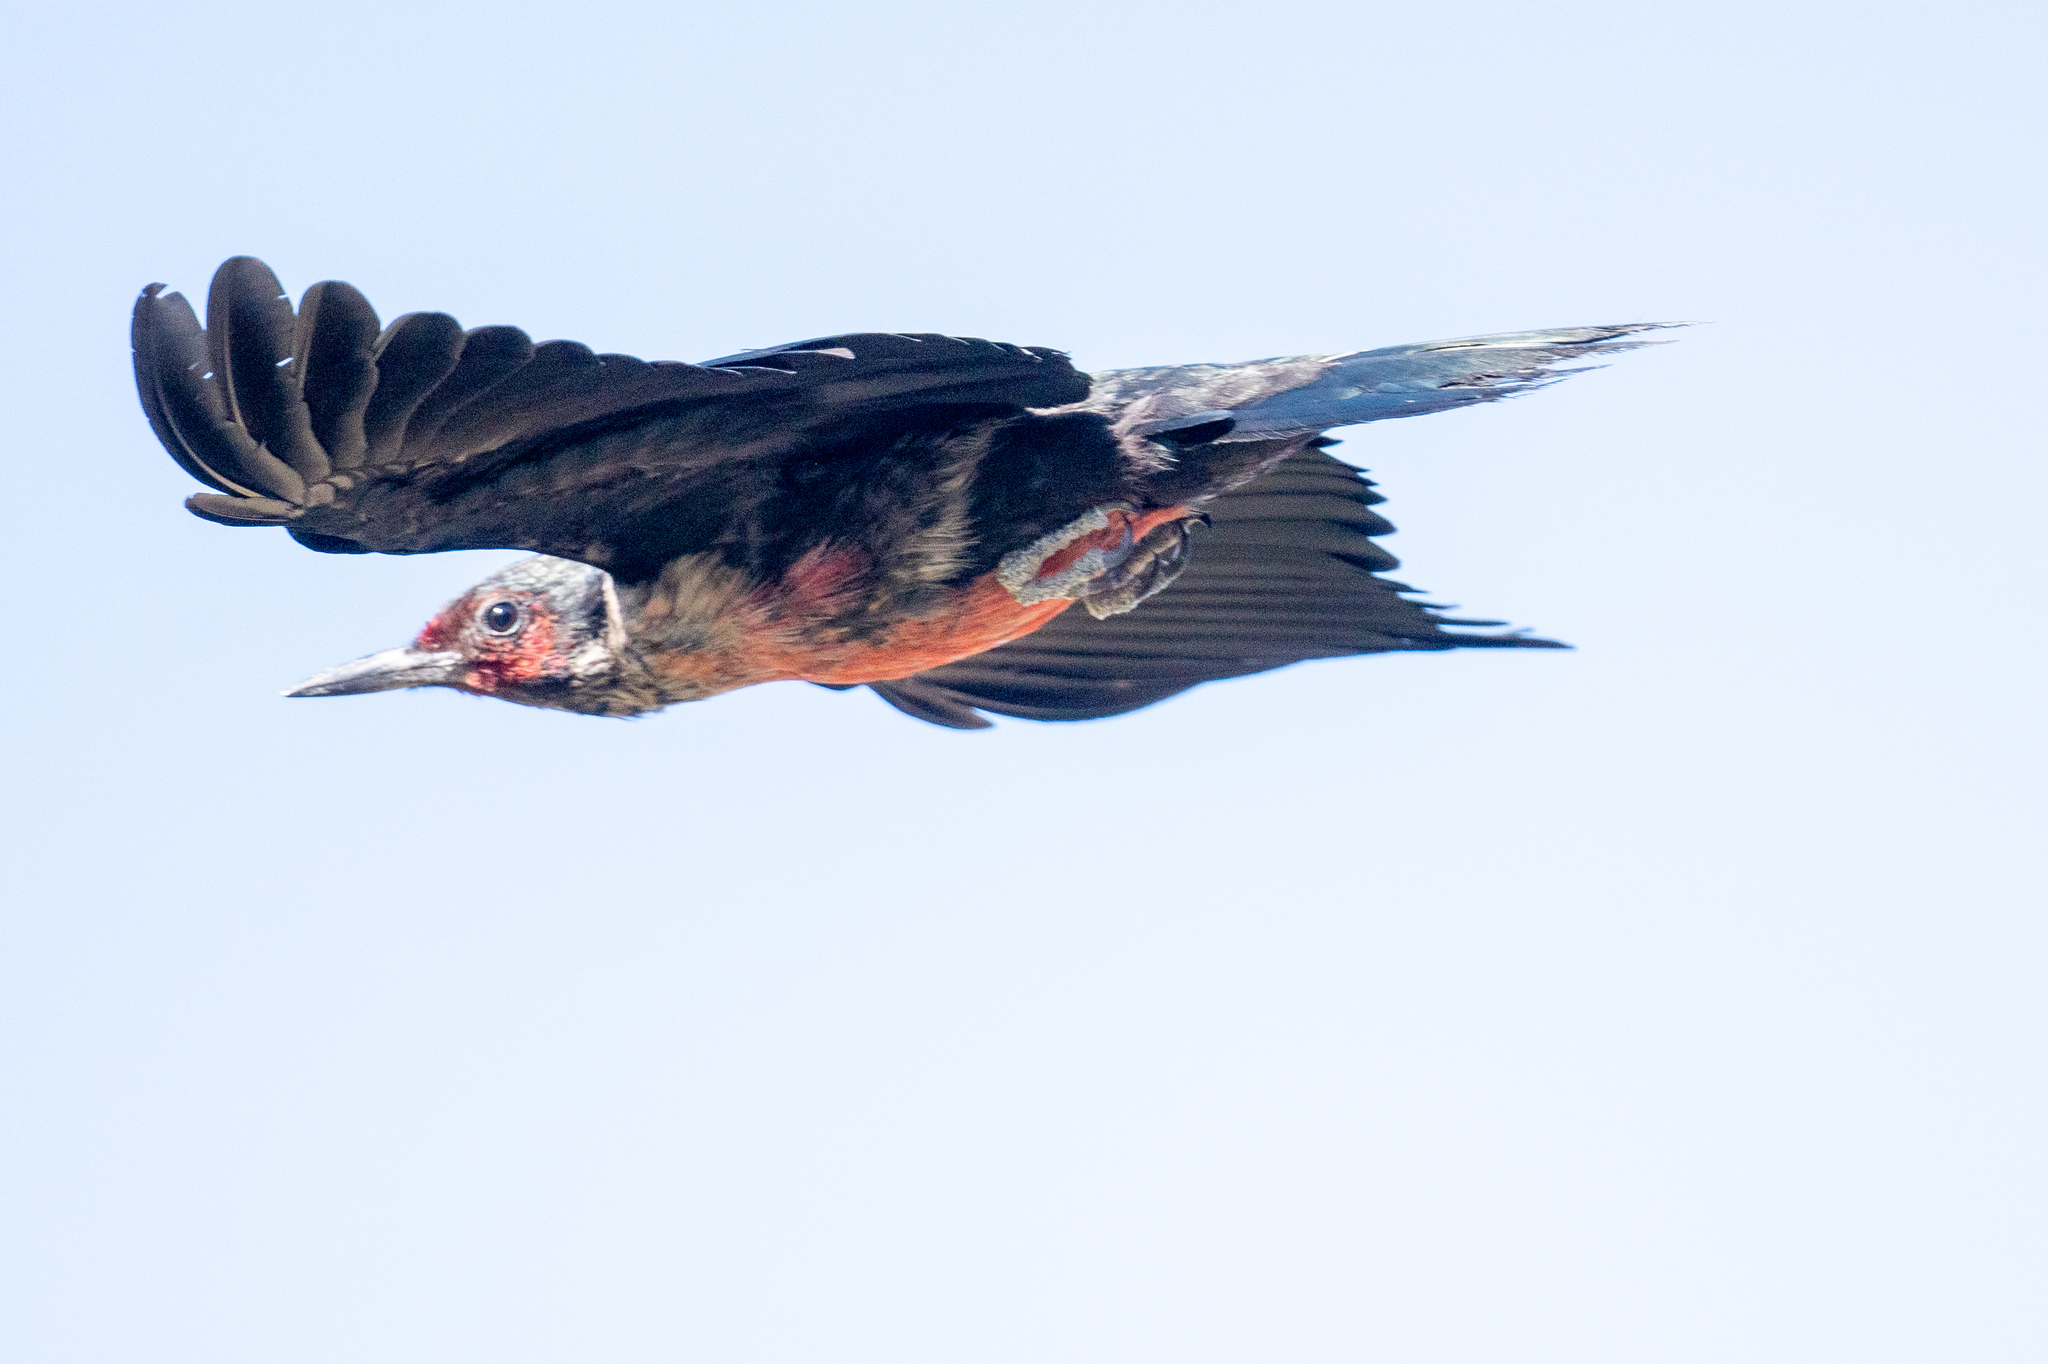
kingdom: Animalia
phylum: Chordata
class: Aves
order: Piciformes
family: Picidae
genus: Melanerpes
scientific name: Melanerpes lewis
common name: Lewis's woodpecker
